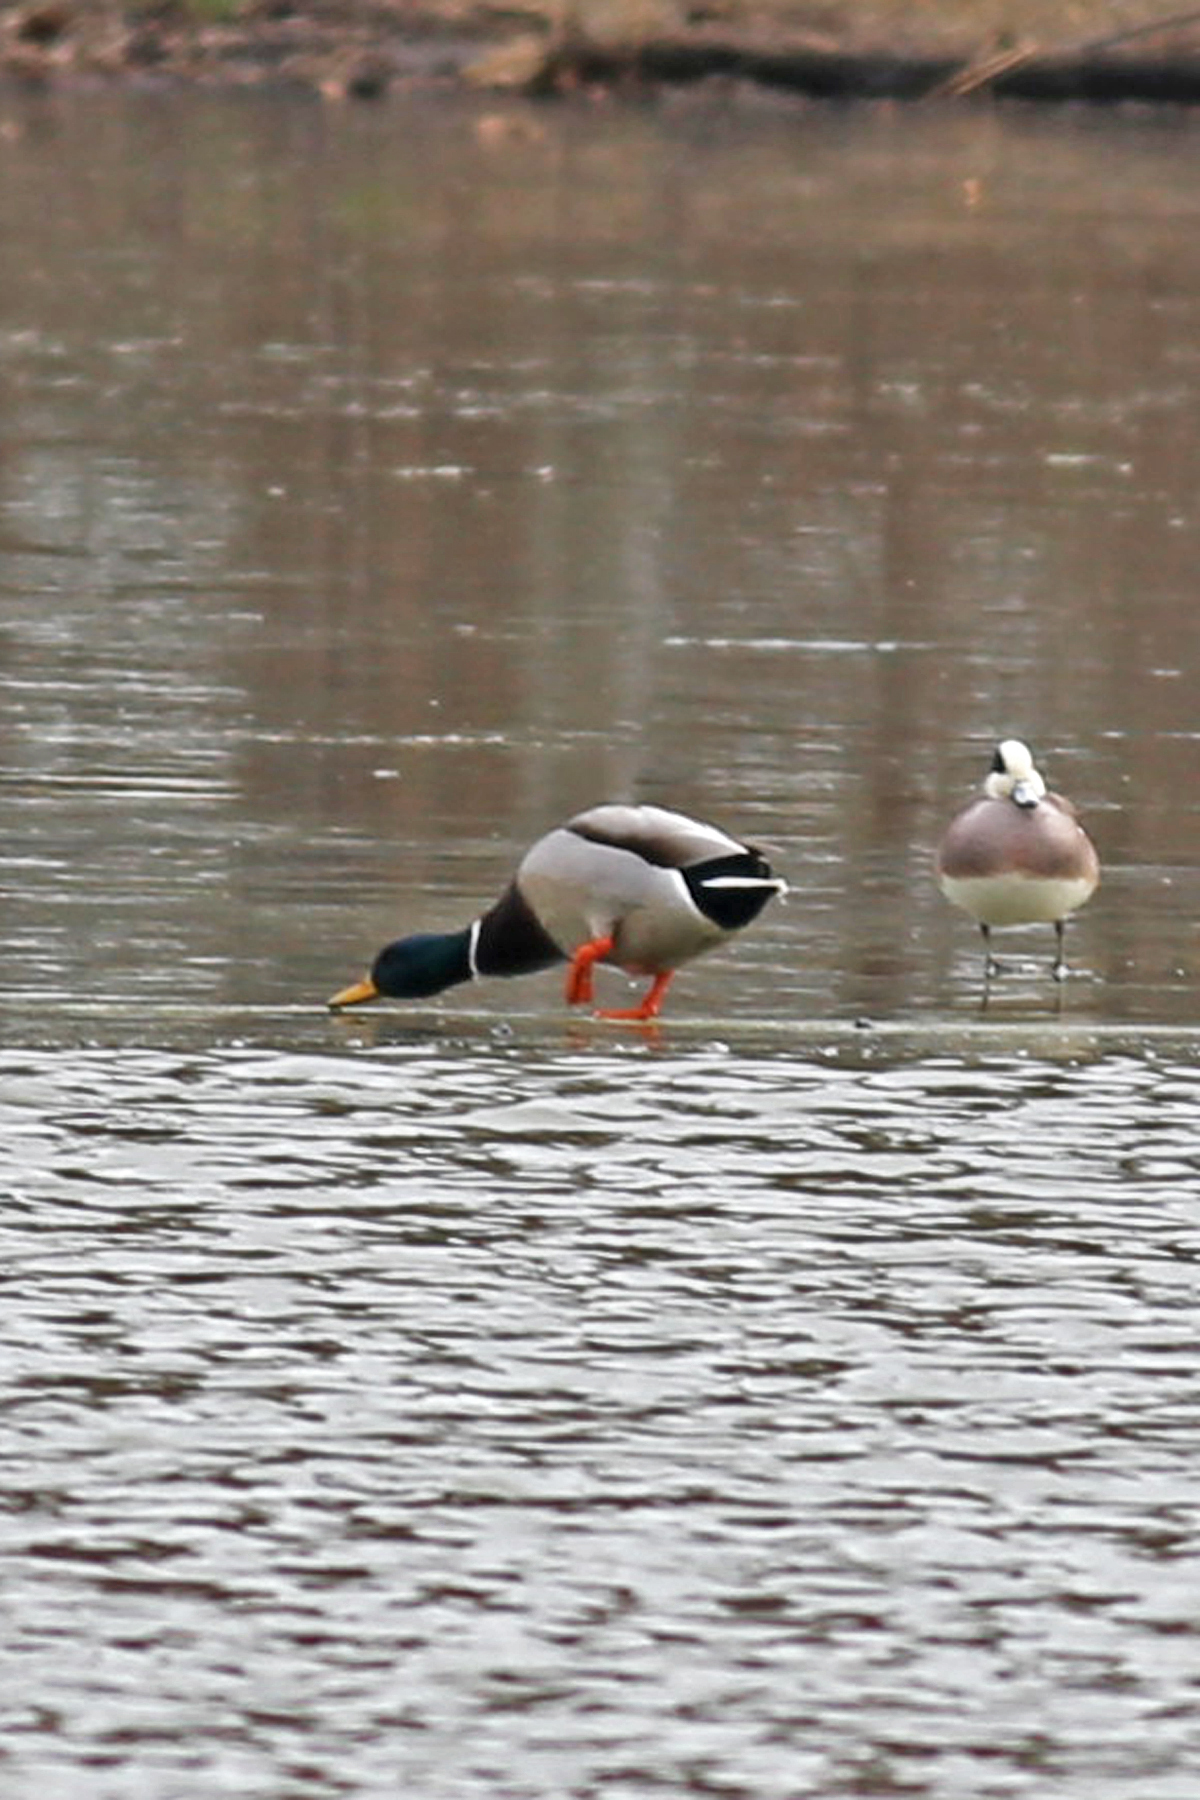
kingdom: Animalia
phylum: Chordata
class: Aves
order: Anseriformes
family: Anatidae
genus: Anas
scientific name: Anas platyrhynchos
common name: Mallard
